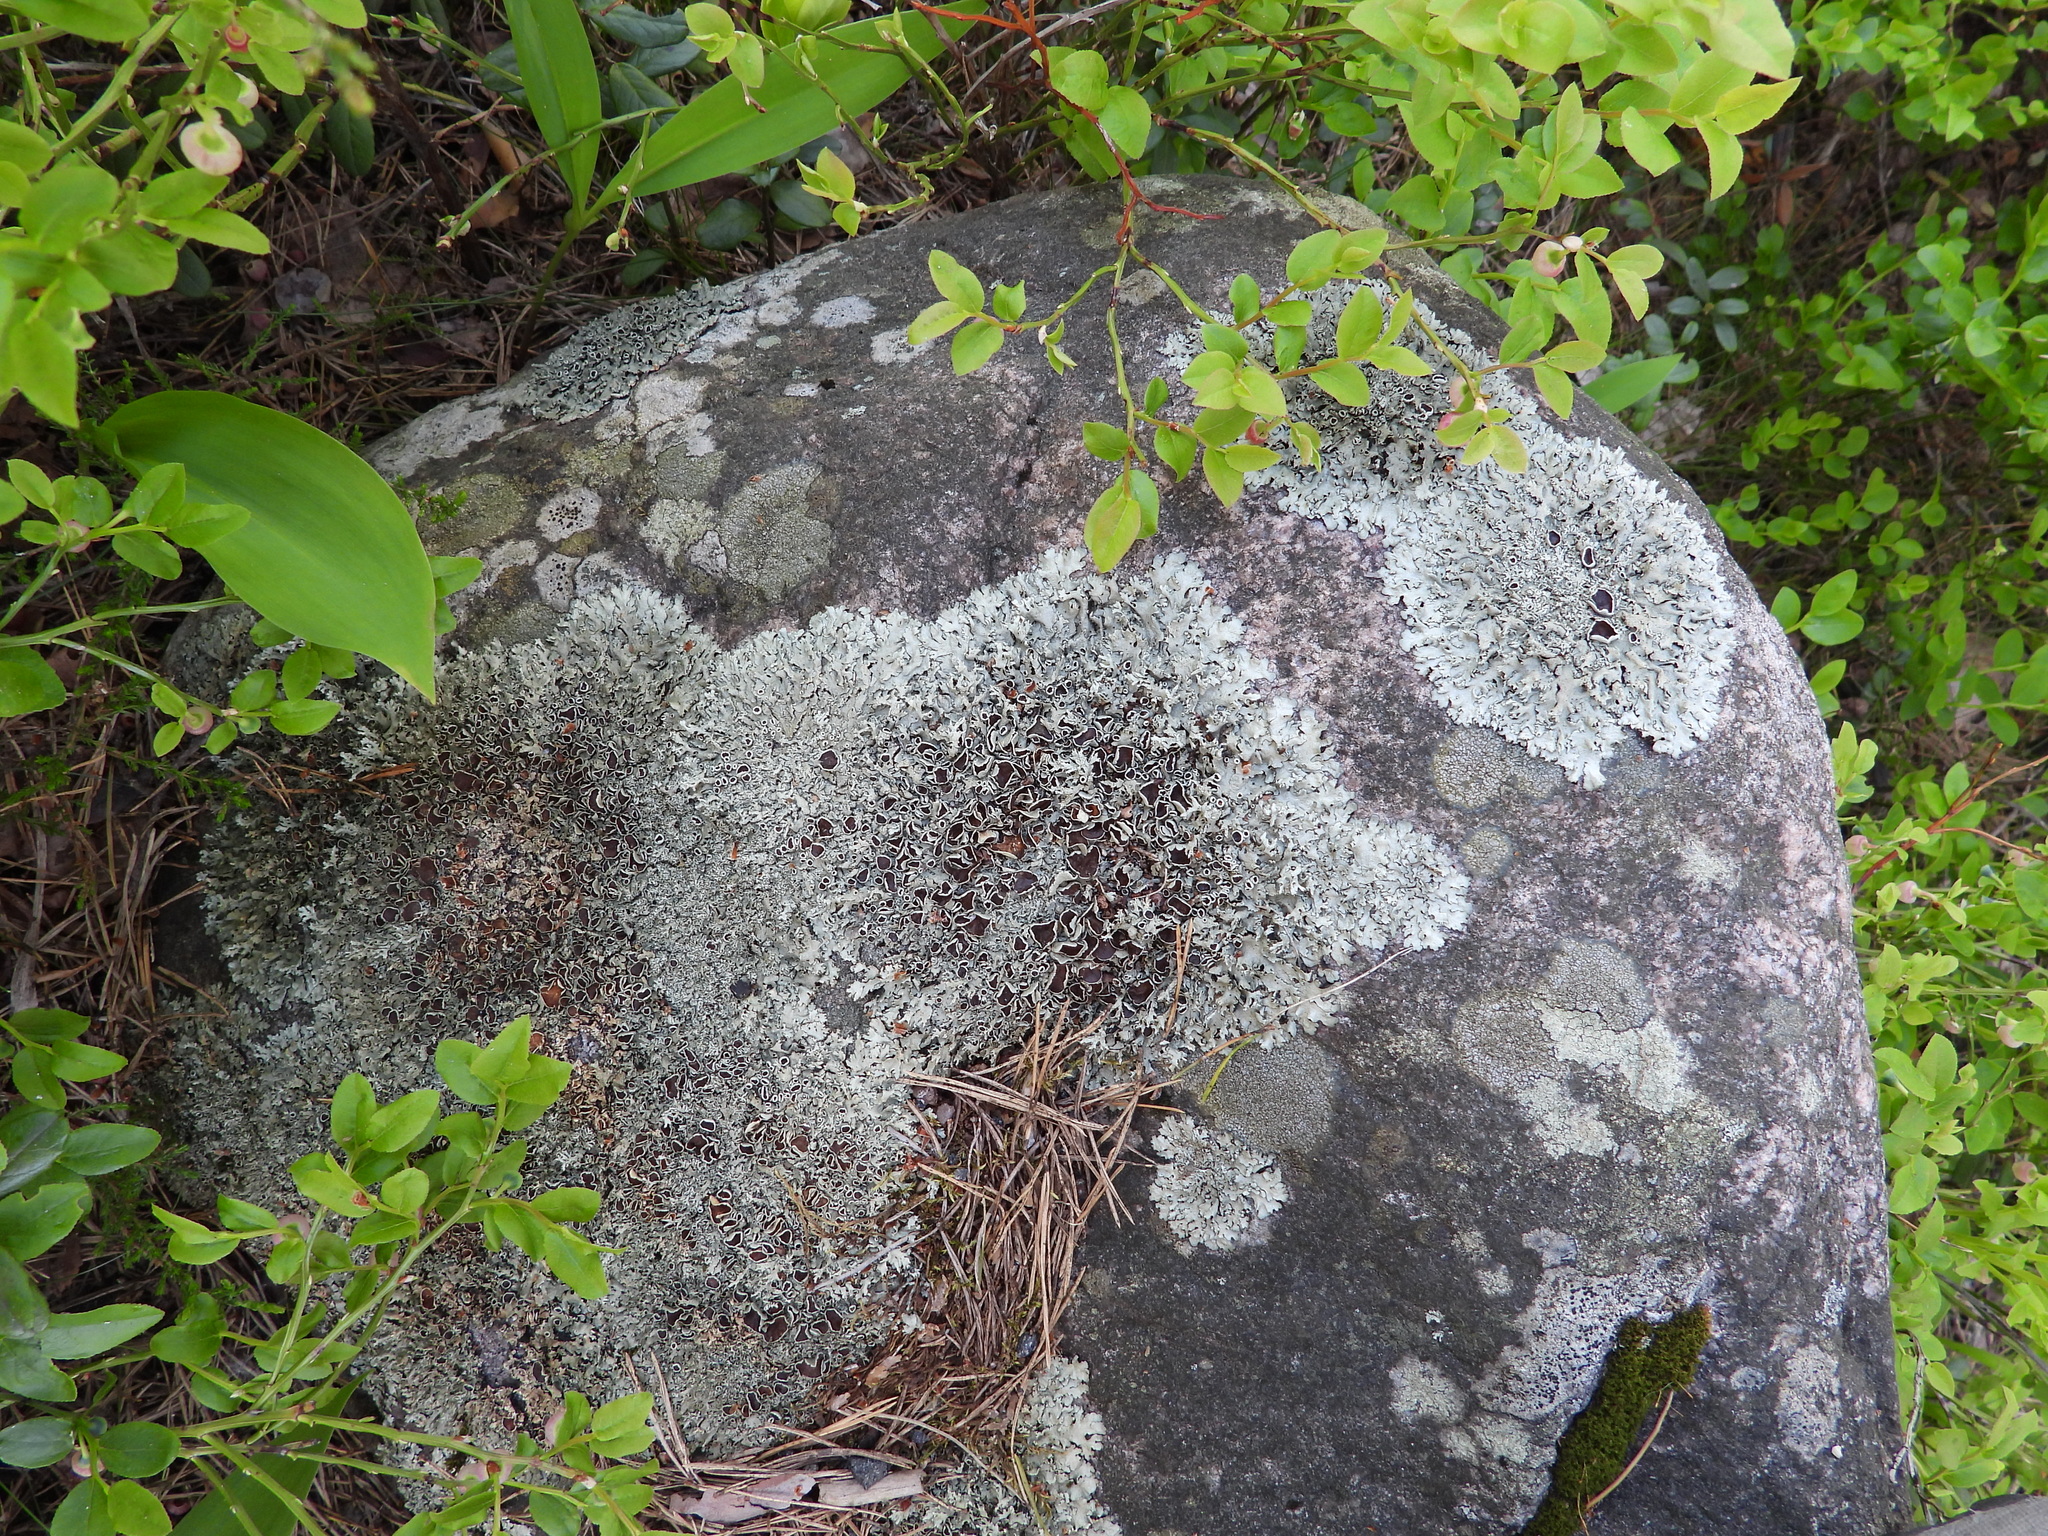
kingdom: Fungi
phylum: Ascomycota
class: Lecanoromycetes
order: Lecanorales
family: Parmeliaceae
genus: Xanthoparmelia
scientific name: Xanthoparmelia stenophylla
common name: Shingled rock shield
